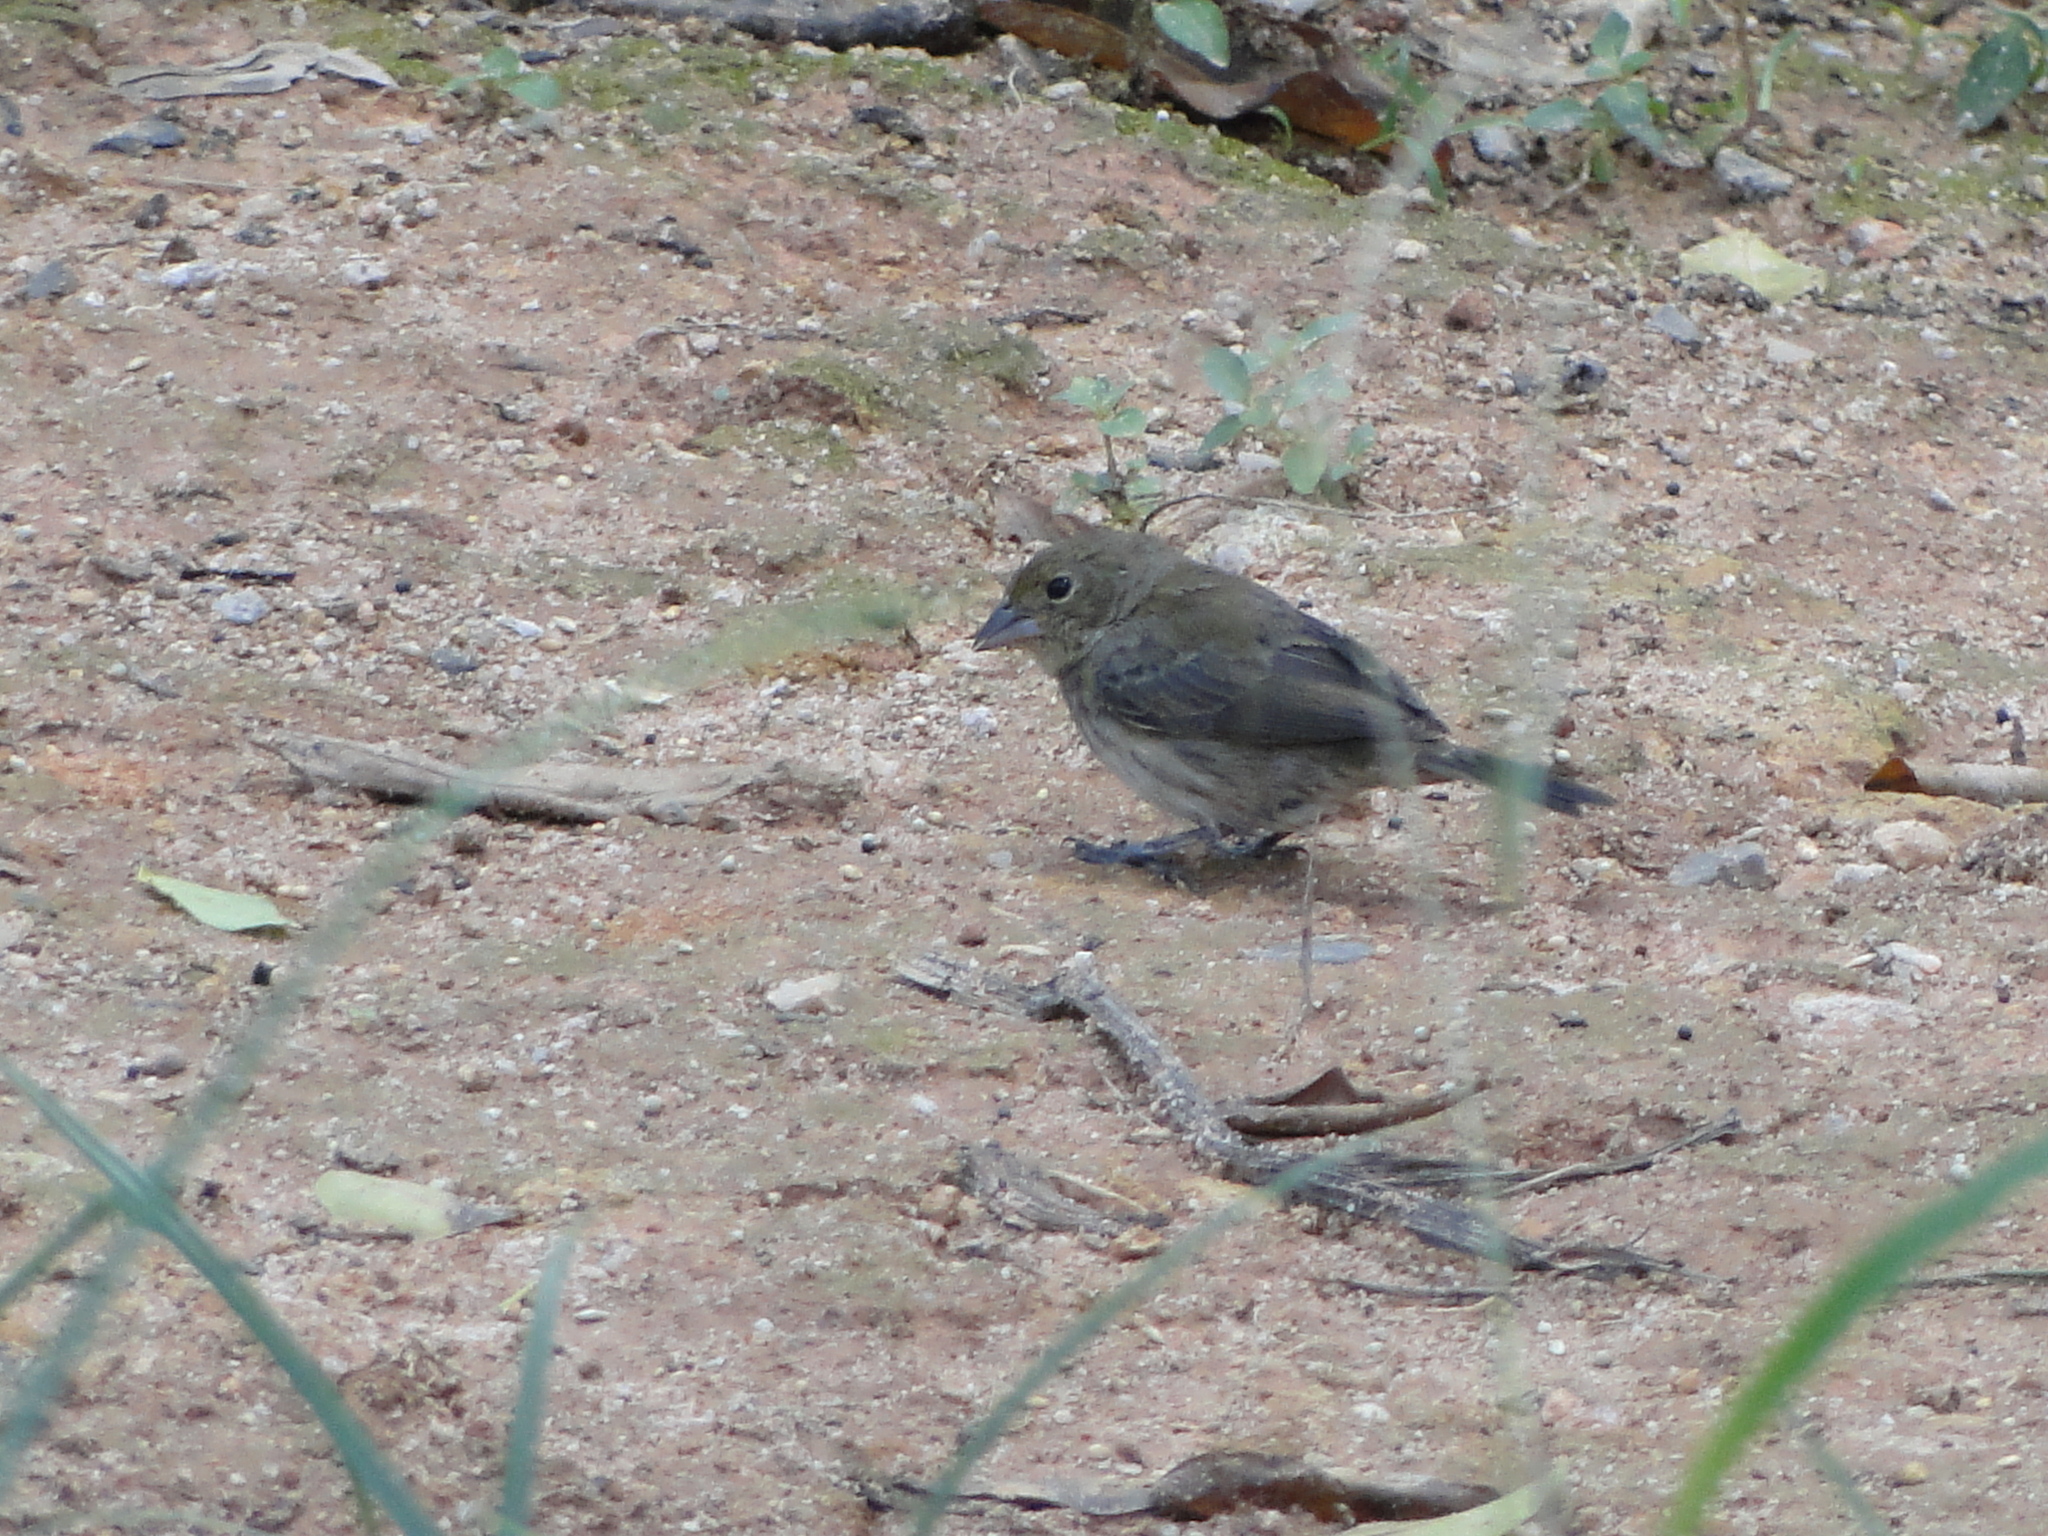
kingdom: Animalia
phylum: Chordata
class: Aves
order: Passeriformes
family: Thraupidae
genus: Volatinia
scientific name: Volatinia jacarina
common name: Blue-black grassquit
